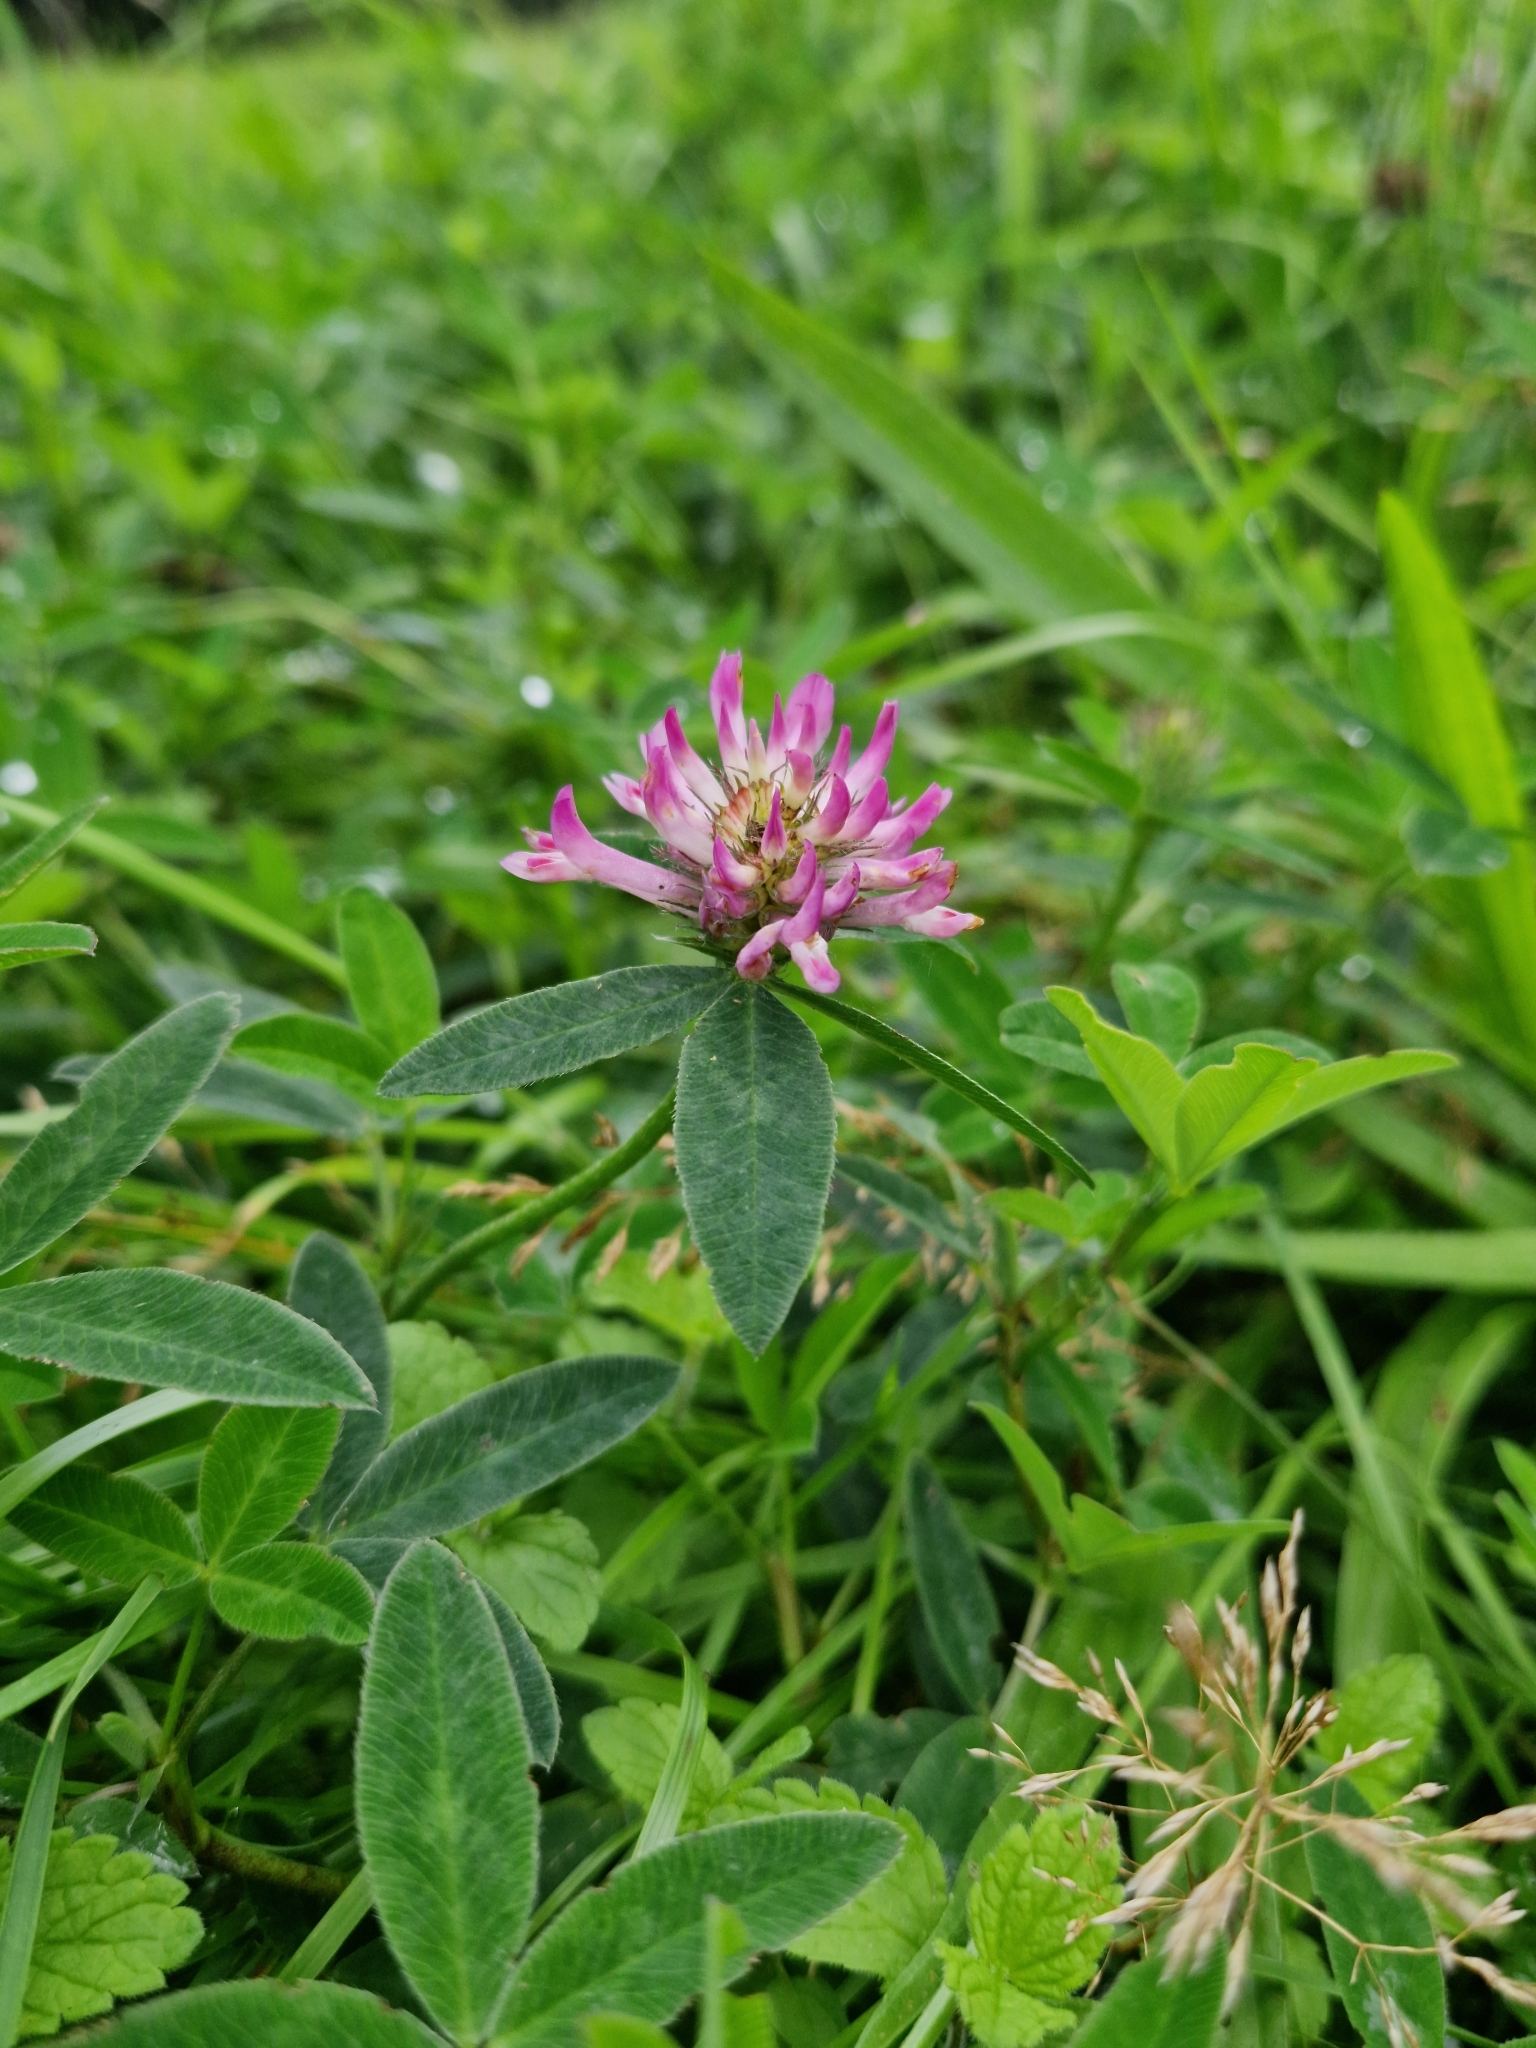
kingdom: Plantae
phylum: Tracheophyta
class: Magnoliopsida
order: Fabales
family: Fabaceae
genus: Trifolium
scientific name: Trifolium medium
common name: Zigzag clover
